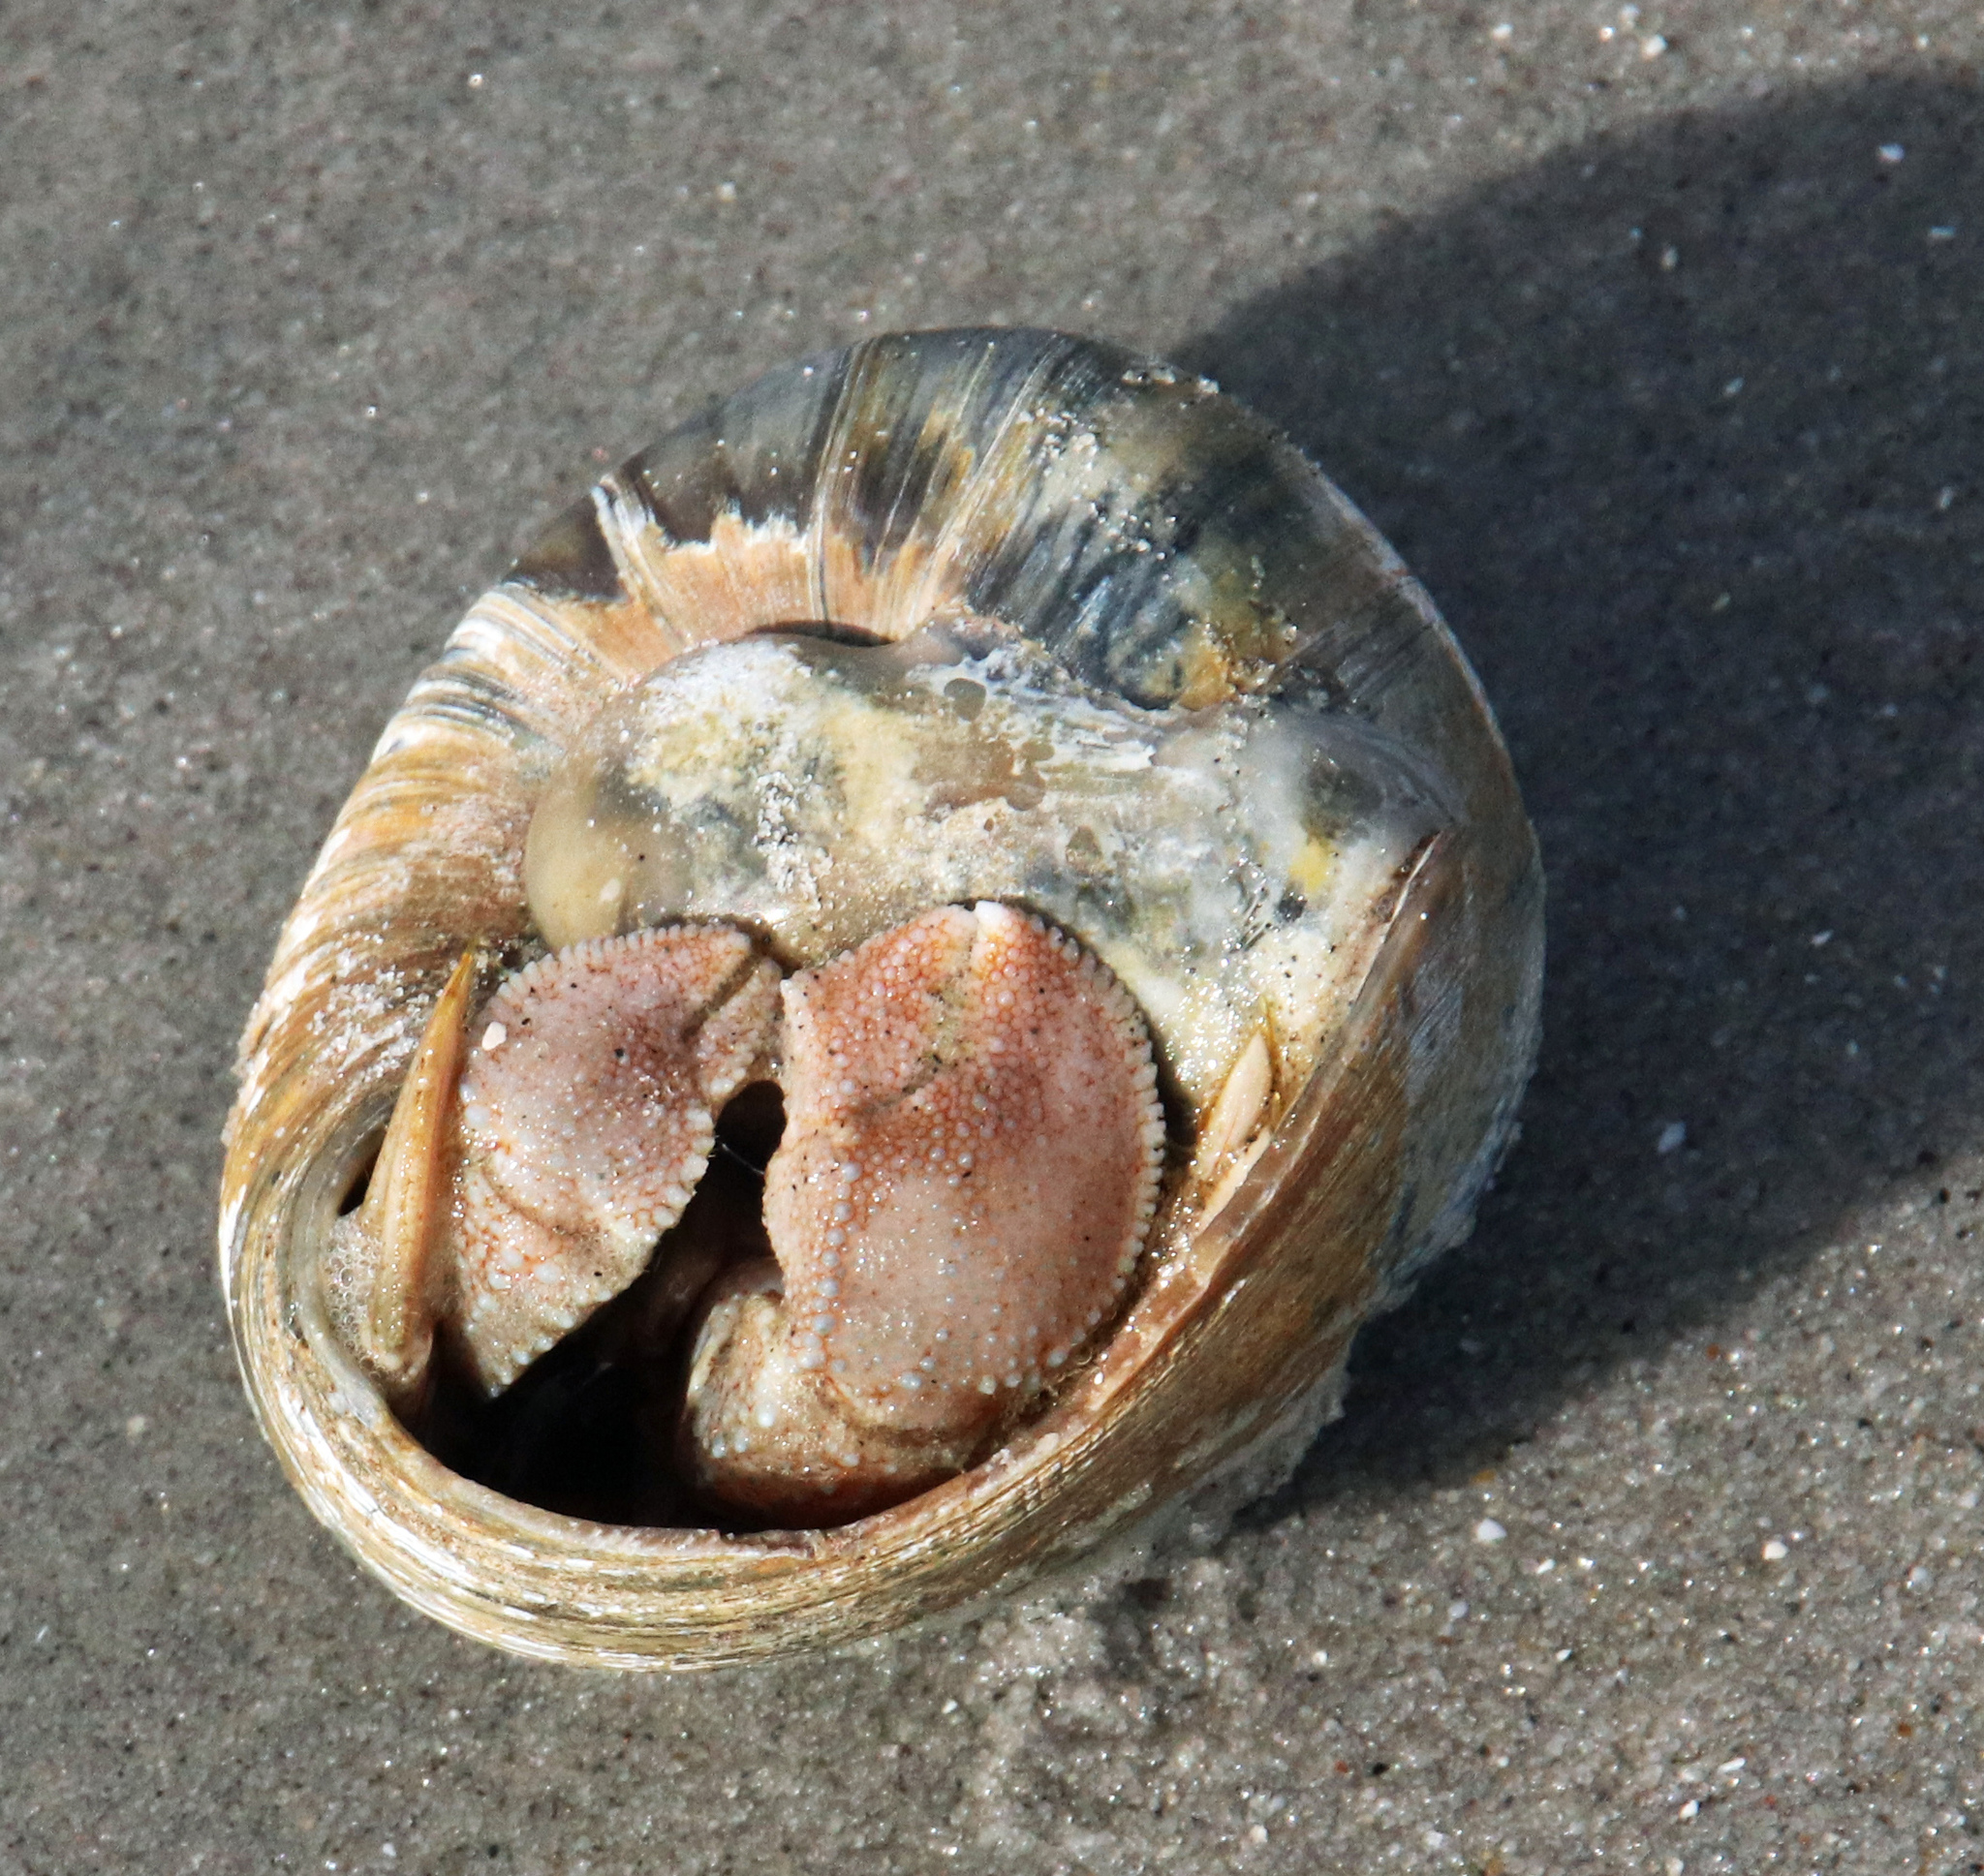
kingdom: Animalia
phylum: Arthropoda
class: Malacostraca
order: Decapoda
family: Paguridae
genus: Pagurus
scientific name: Pagurus pollicaris
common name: Flatclaw hermit
